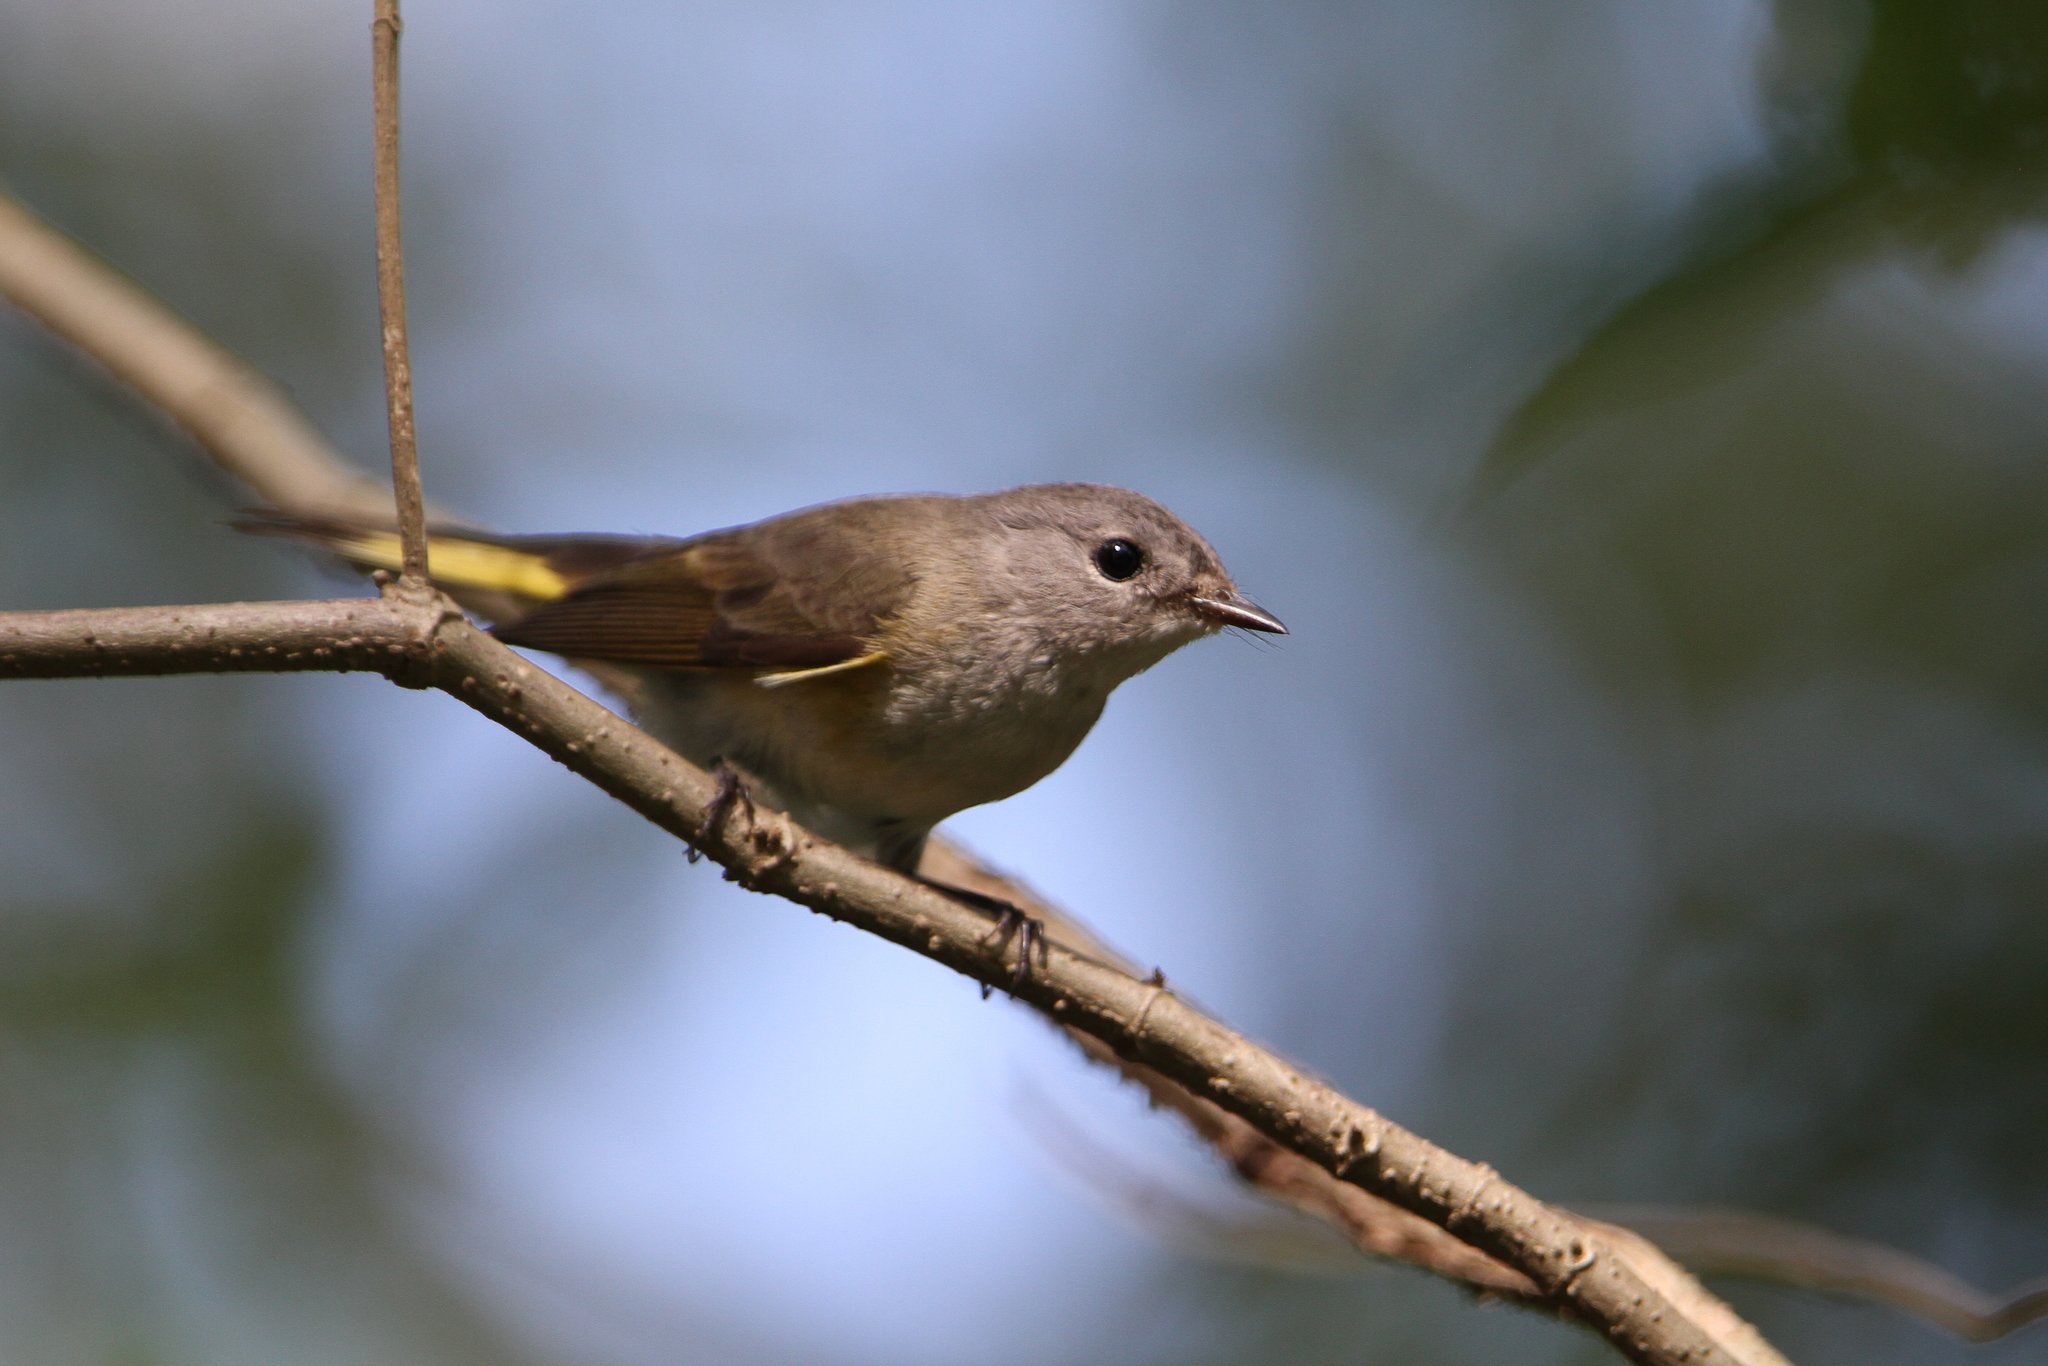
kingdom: Animalia
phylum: Chordata
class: Aves
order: Passeriformes
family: Parulidae
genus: Setophaga
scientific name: Setophaga ruticilla
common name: American redstart
